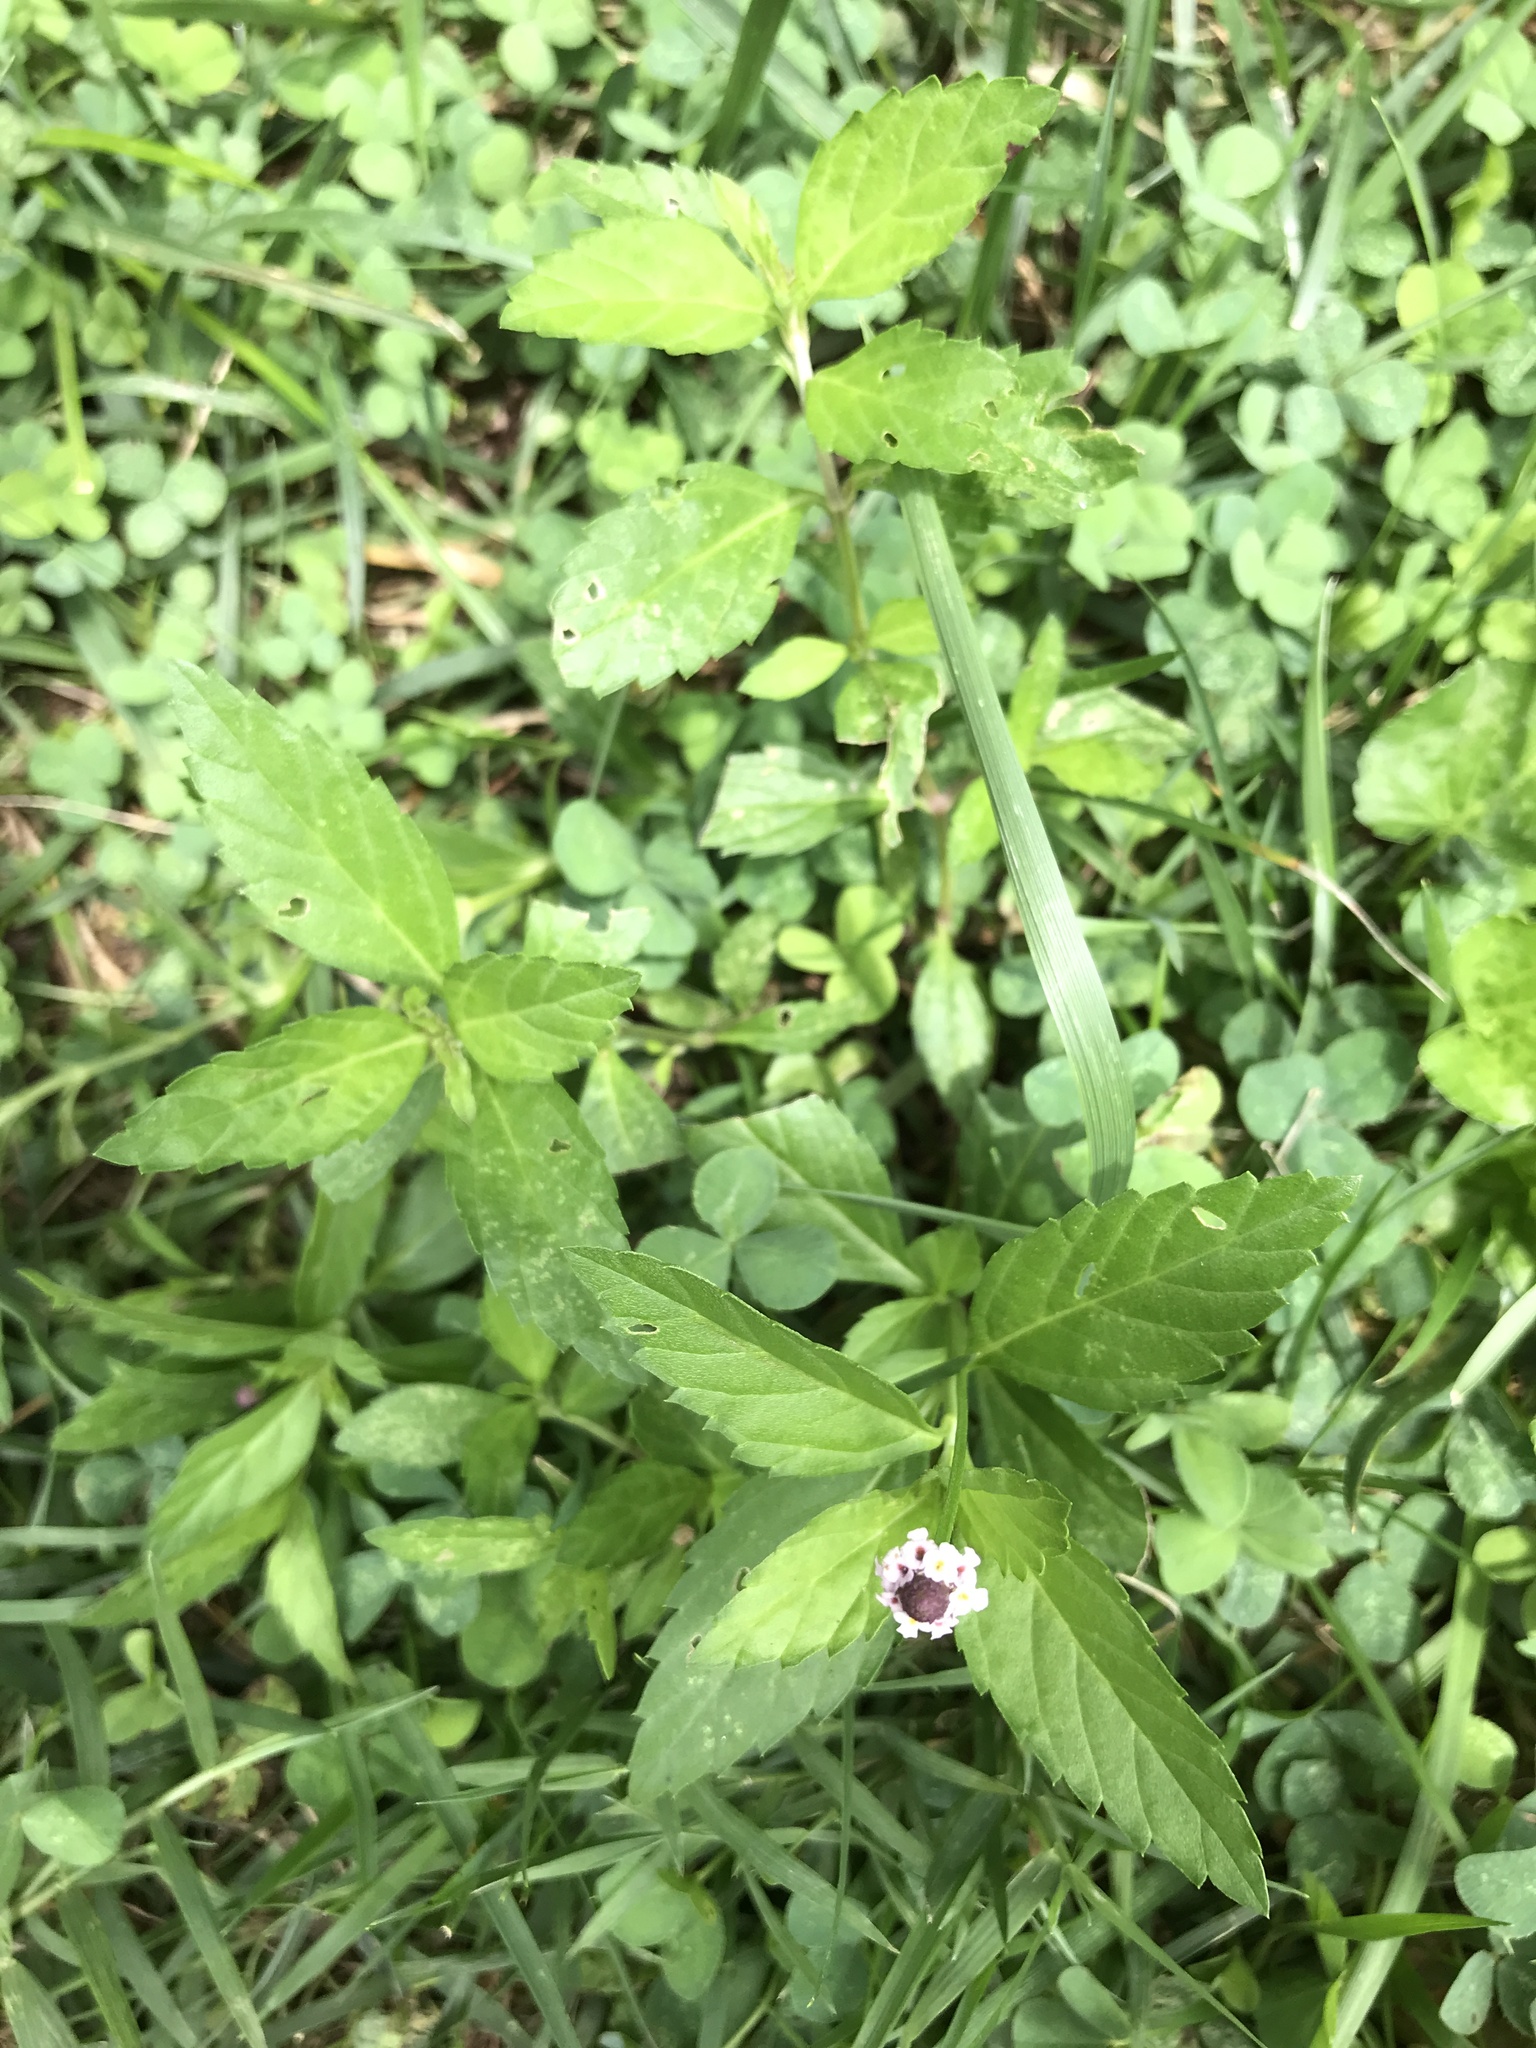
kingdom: Plantae
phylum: Tracheophyta
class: Magnoliopsida
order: Lamiales
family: Verbenaceae
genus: Phyla
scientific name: Phyla lanceolata
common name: Northern fogfruit
